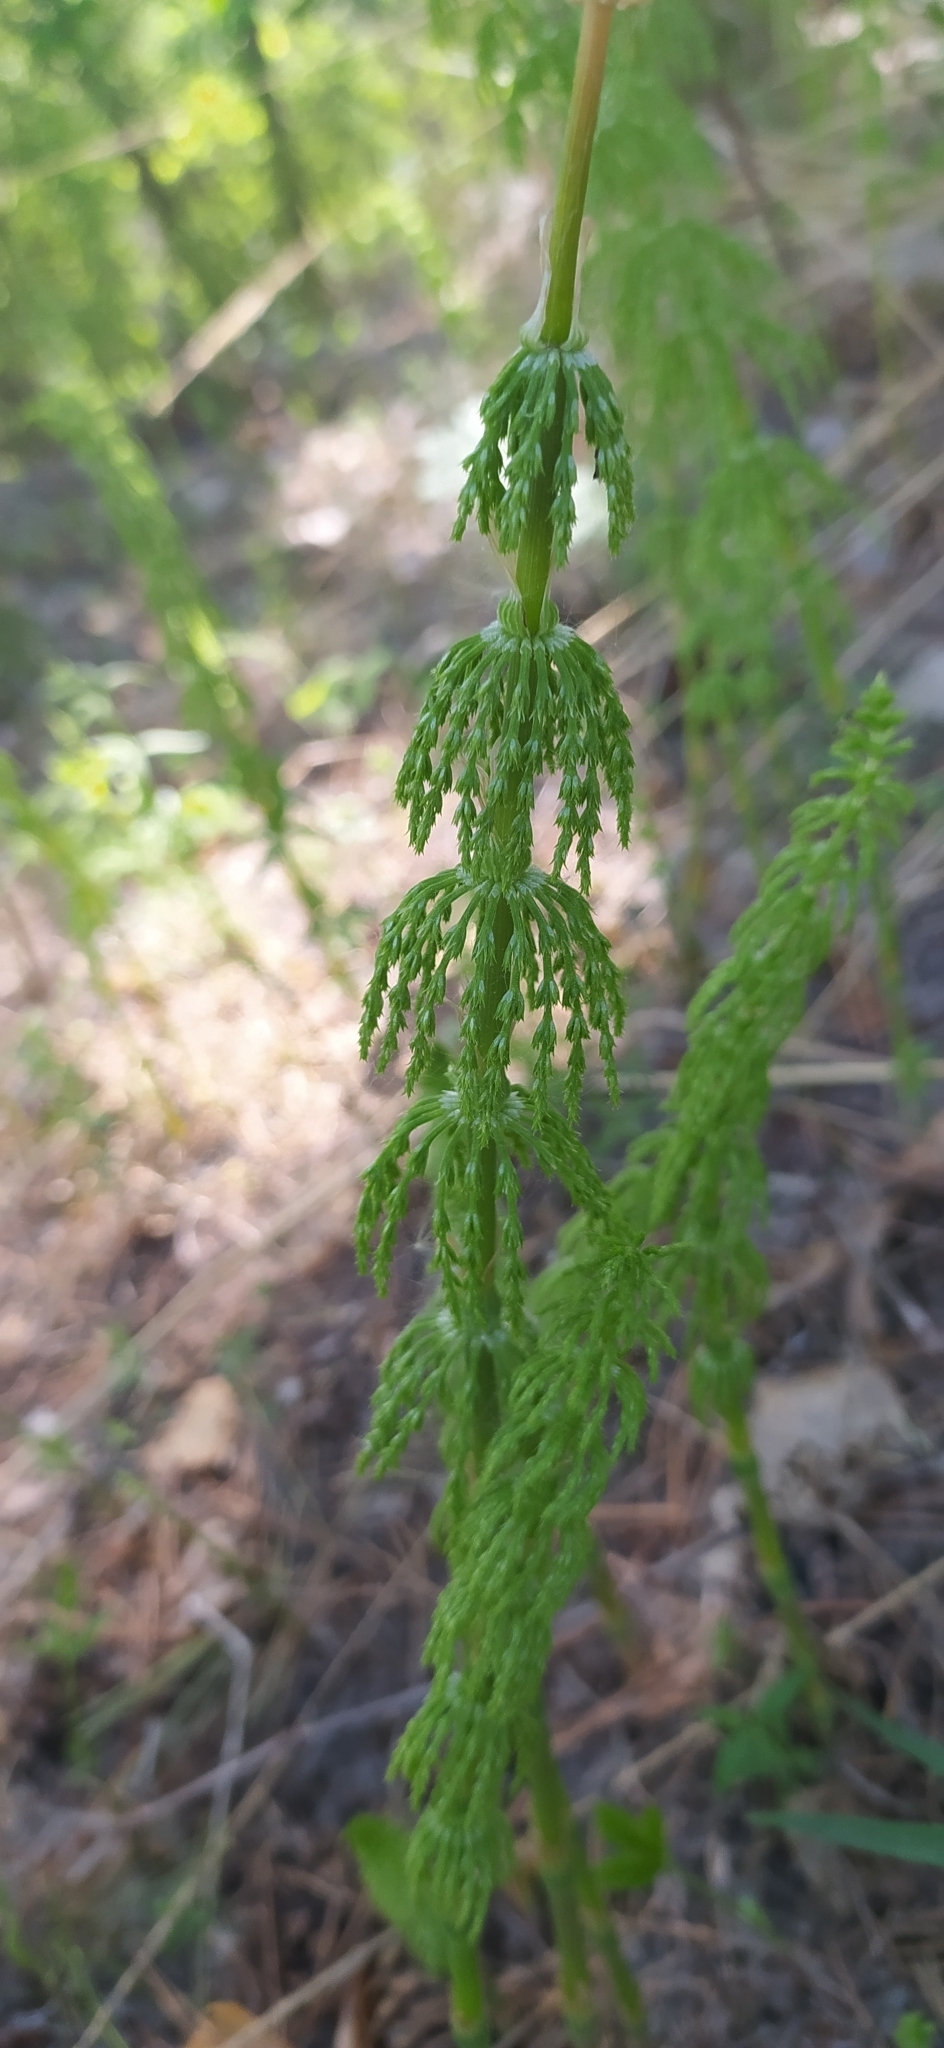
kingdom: Plantae
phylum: Tracheophyta
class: Polypodiopsida
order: Equisetales
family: Equisetaceae
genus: Equisetum
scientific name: Equisetum sylvaticum
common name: Wood horsetail
